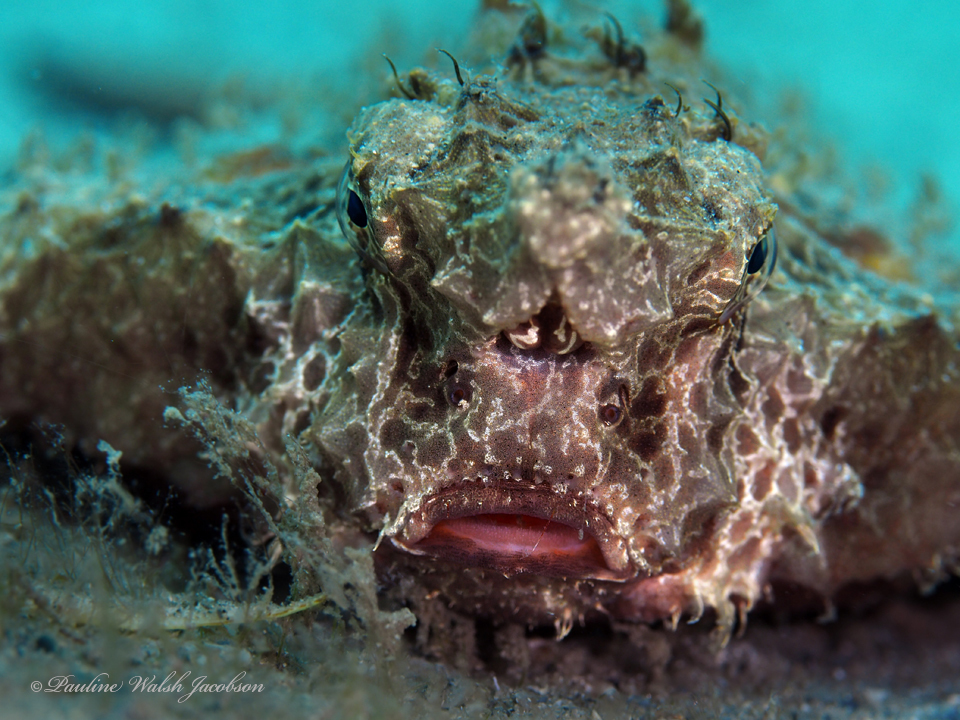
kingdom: Animalia
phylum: Chordata
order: Lophiiformes
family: Ogcocephalidae
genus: Ogcocephalus
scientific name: Ogcocephalus cubifrons
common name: Polka-dot batfish
